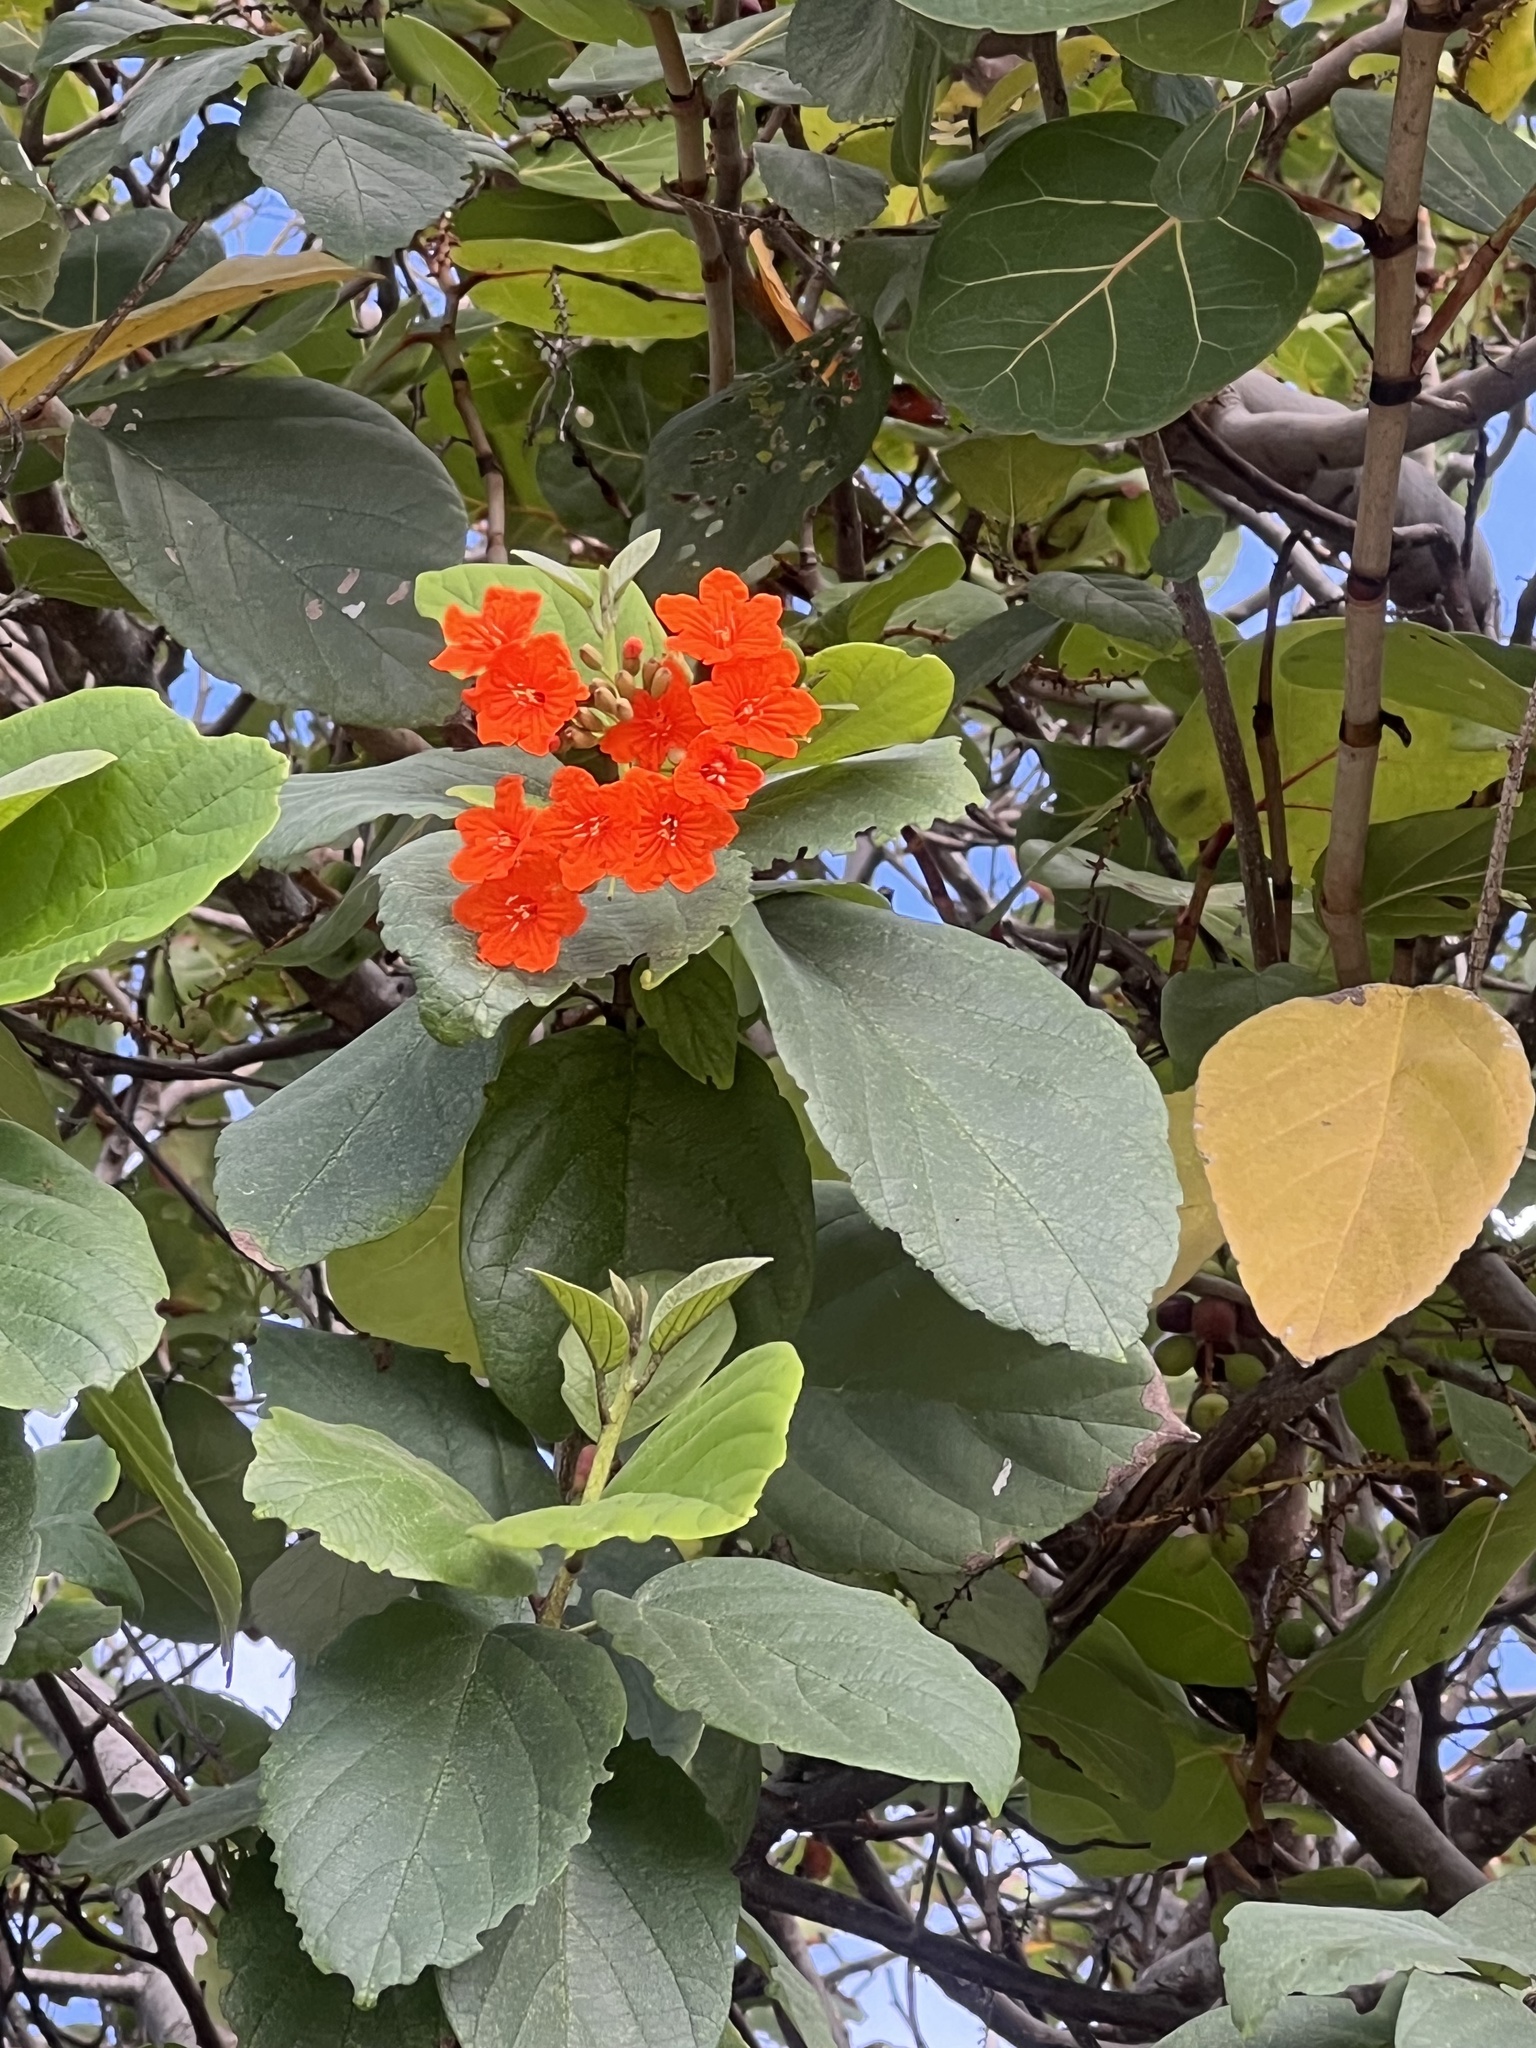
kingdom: Plantae
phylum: Tracheophyta
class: Magnoliopsida
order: Boraginales
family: Cordiaceae
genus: Cordia
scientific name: Cordia sebestena
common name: Largeleaf geigertree
